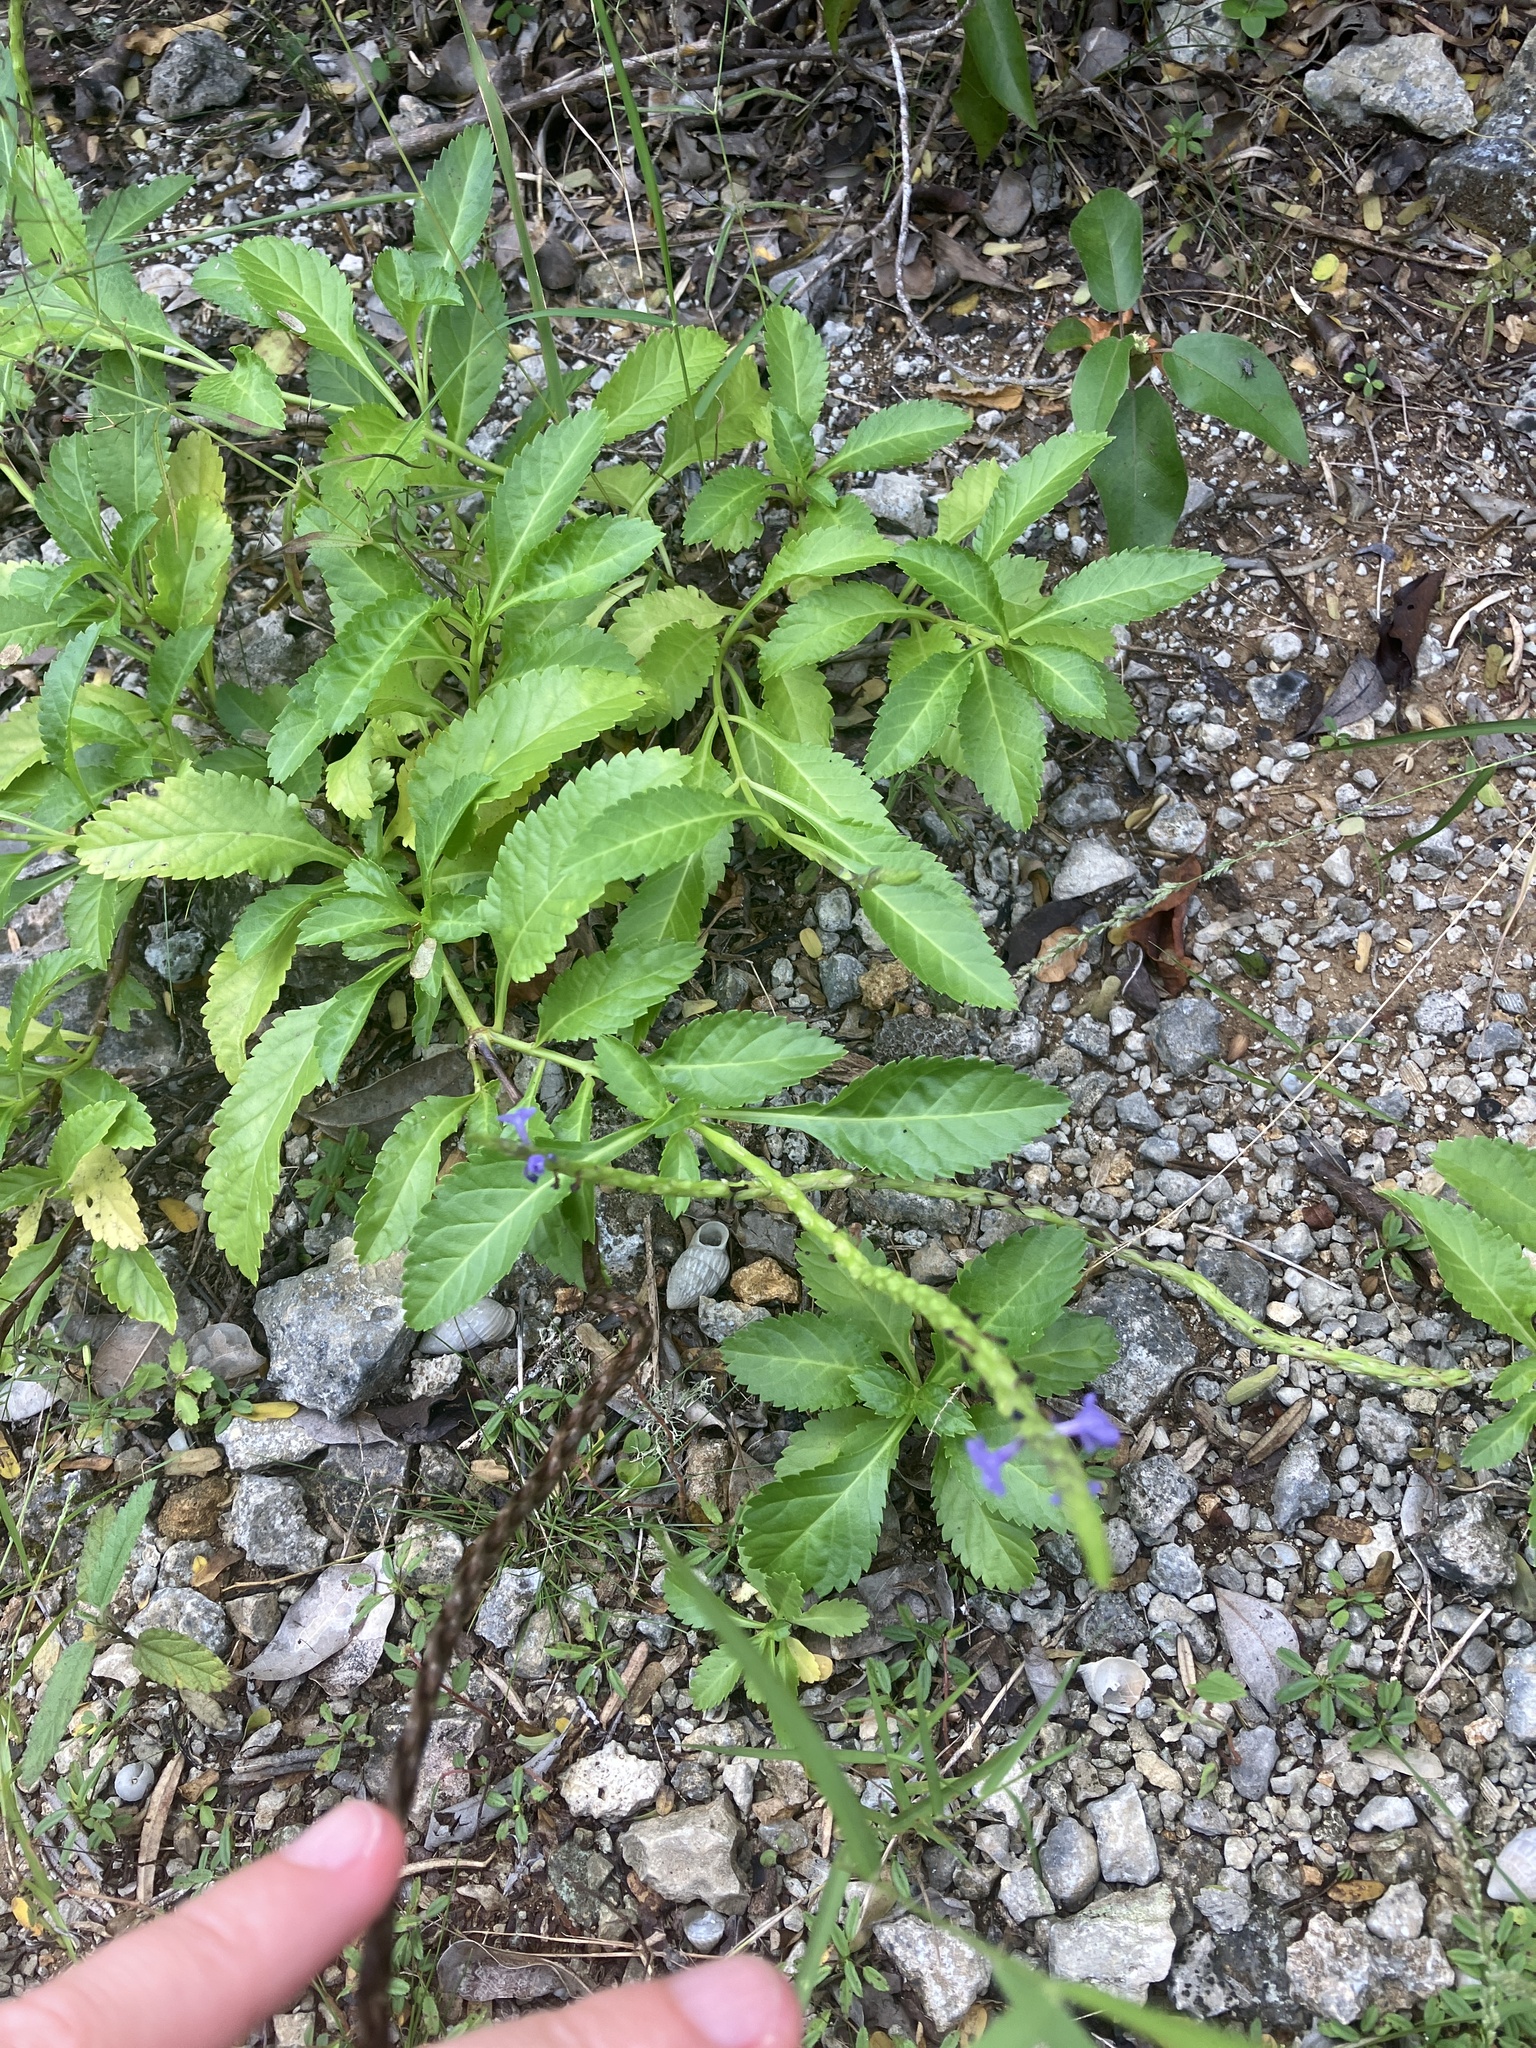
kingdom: Plantae
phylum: Tracheophyta
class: Magnoliopsida
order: Lamiales
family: Verbenaceae
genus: Stachytarpheta
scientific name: Stachytarpheta jamaicensis
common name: Light-blue snakeweed
